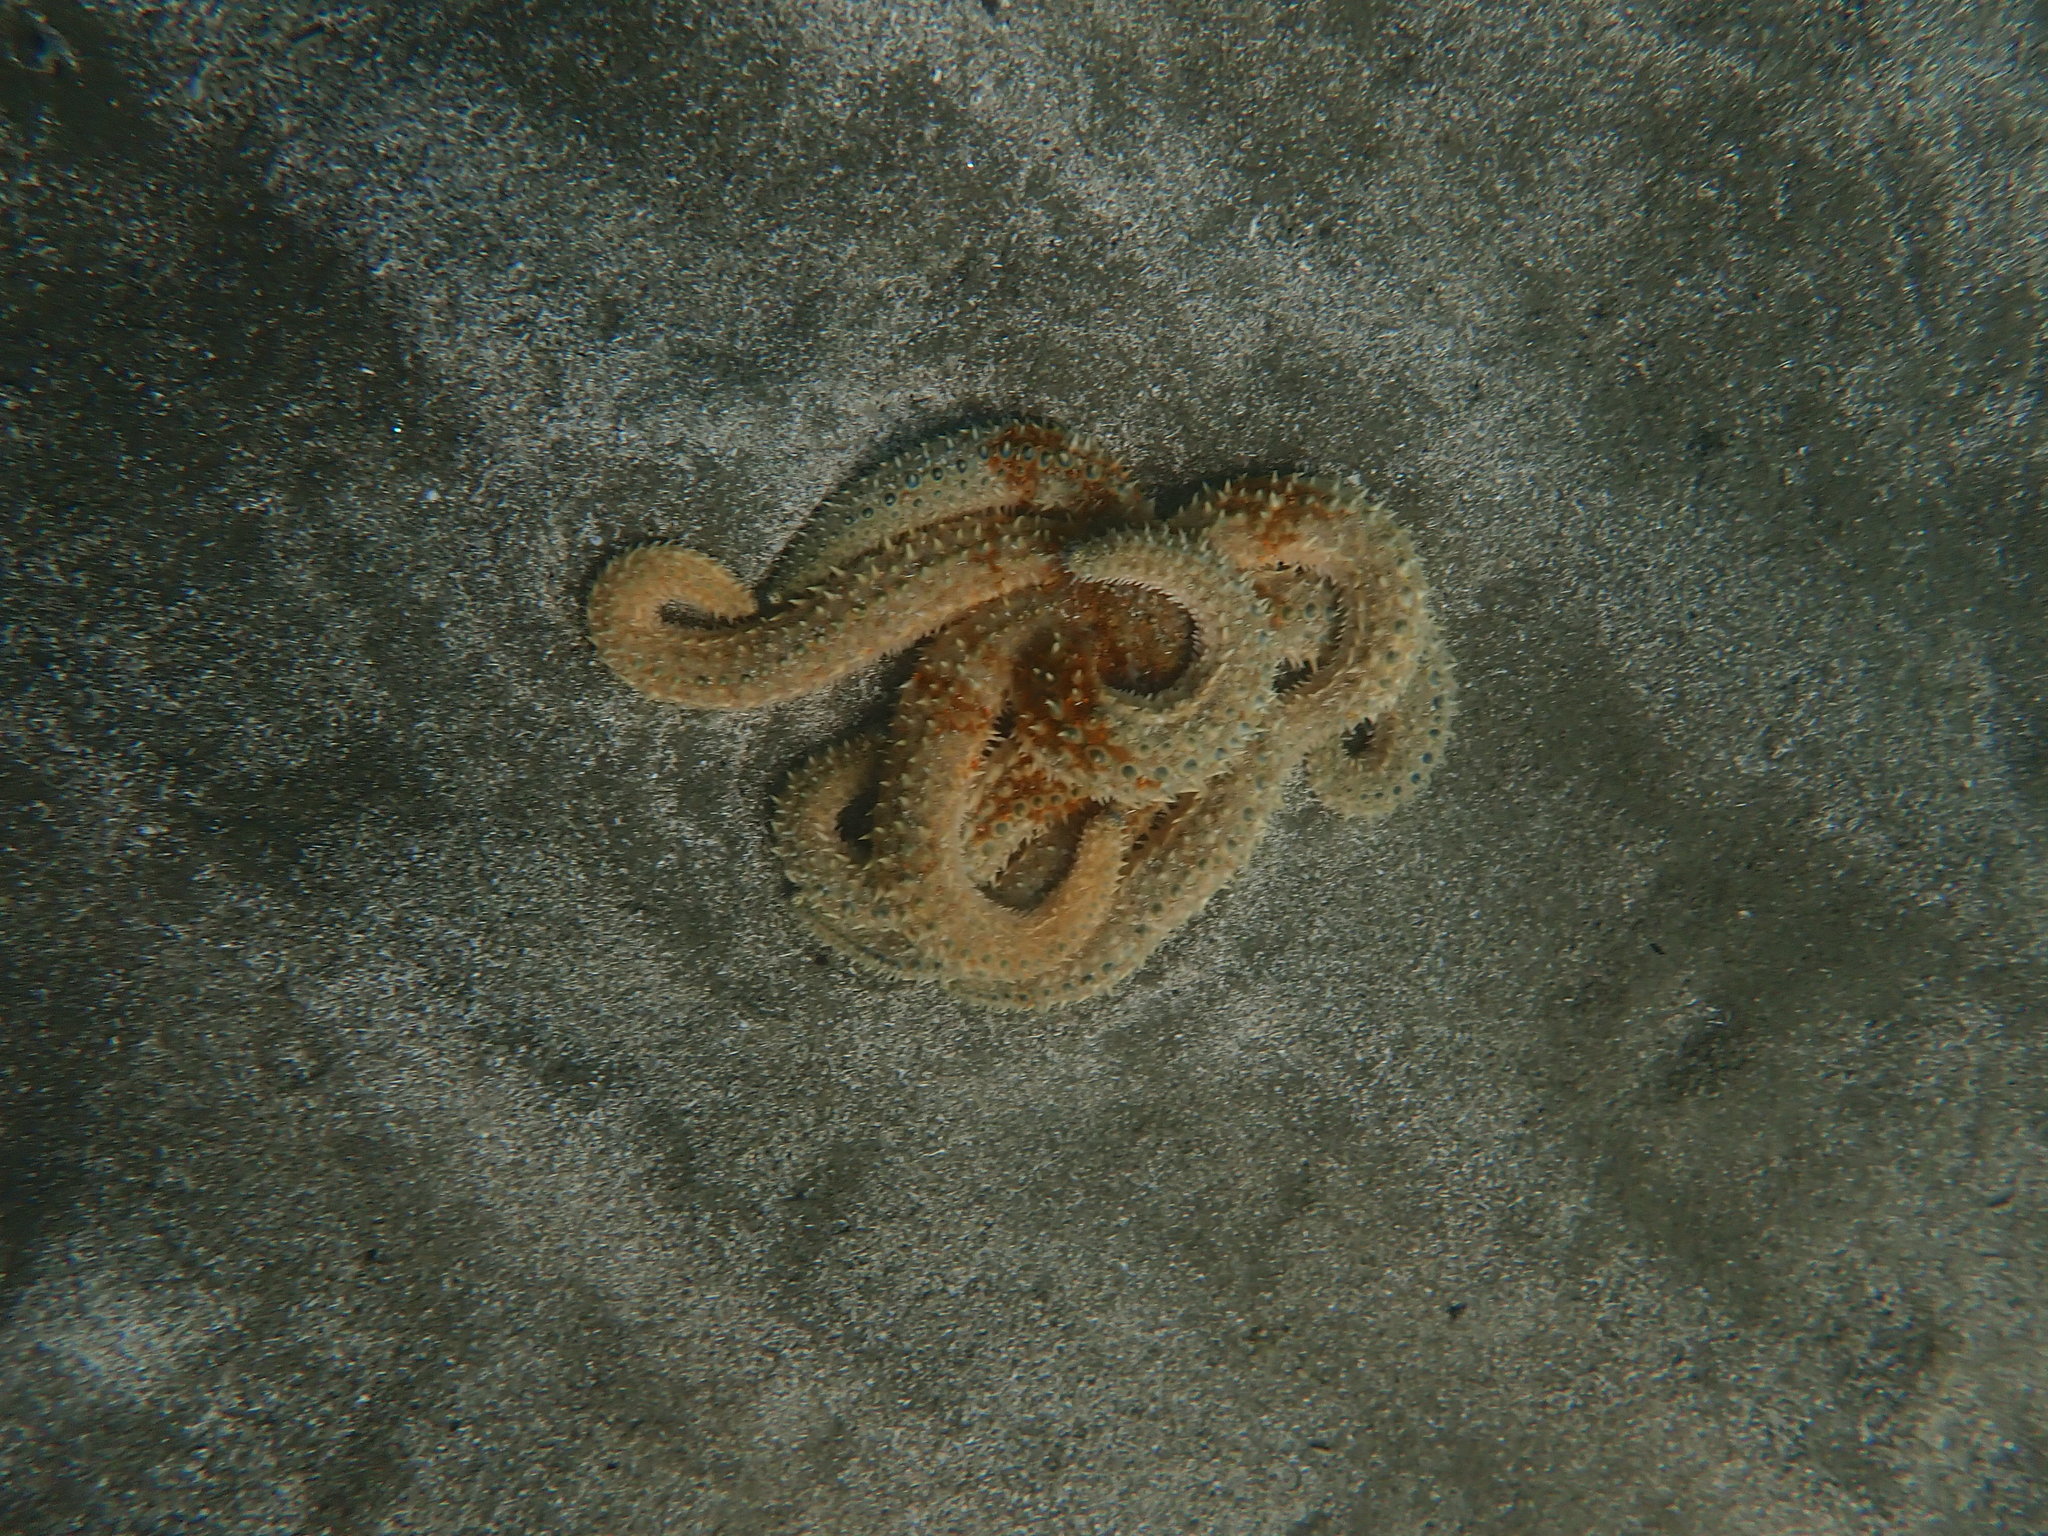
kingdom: Animalia
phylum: Echinodermata
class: Asteroidea
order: Forcipulatida
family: Asteriidae
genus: Coscinasterias
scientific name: Coscinasterias muricata
